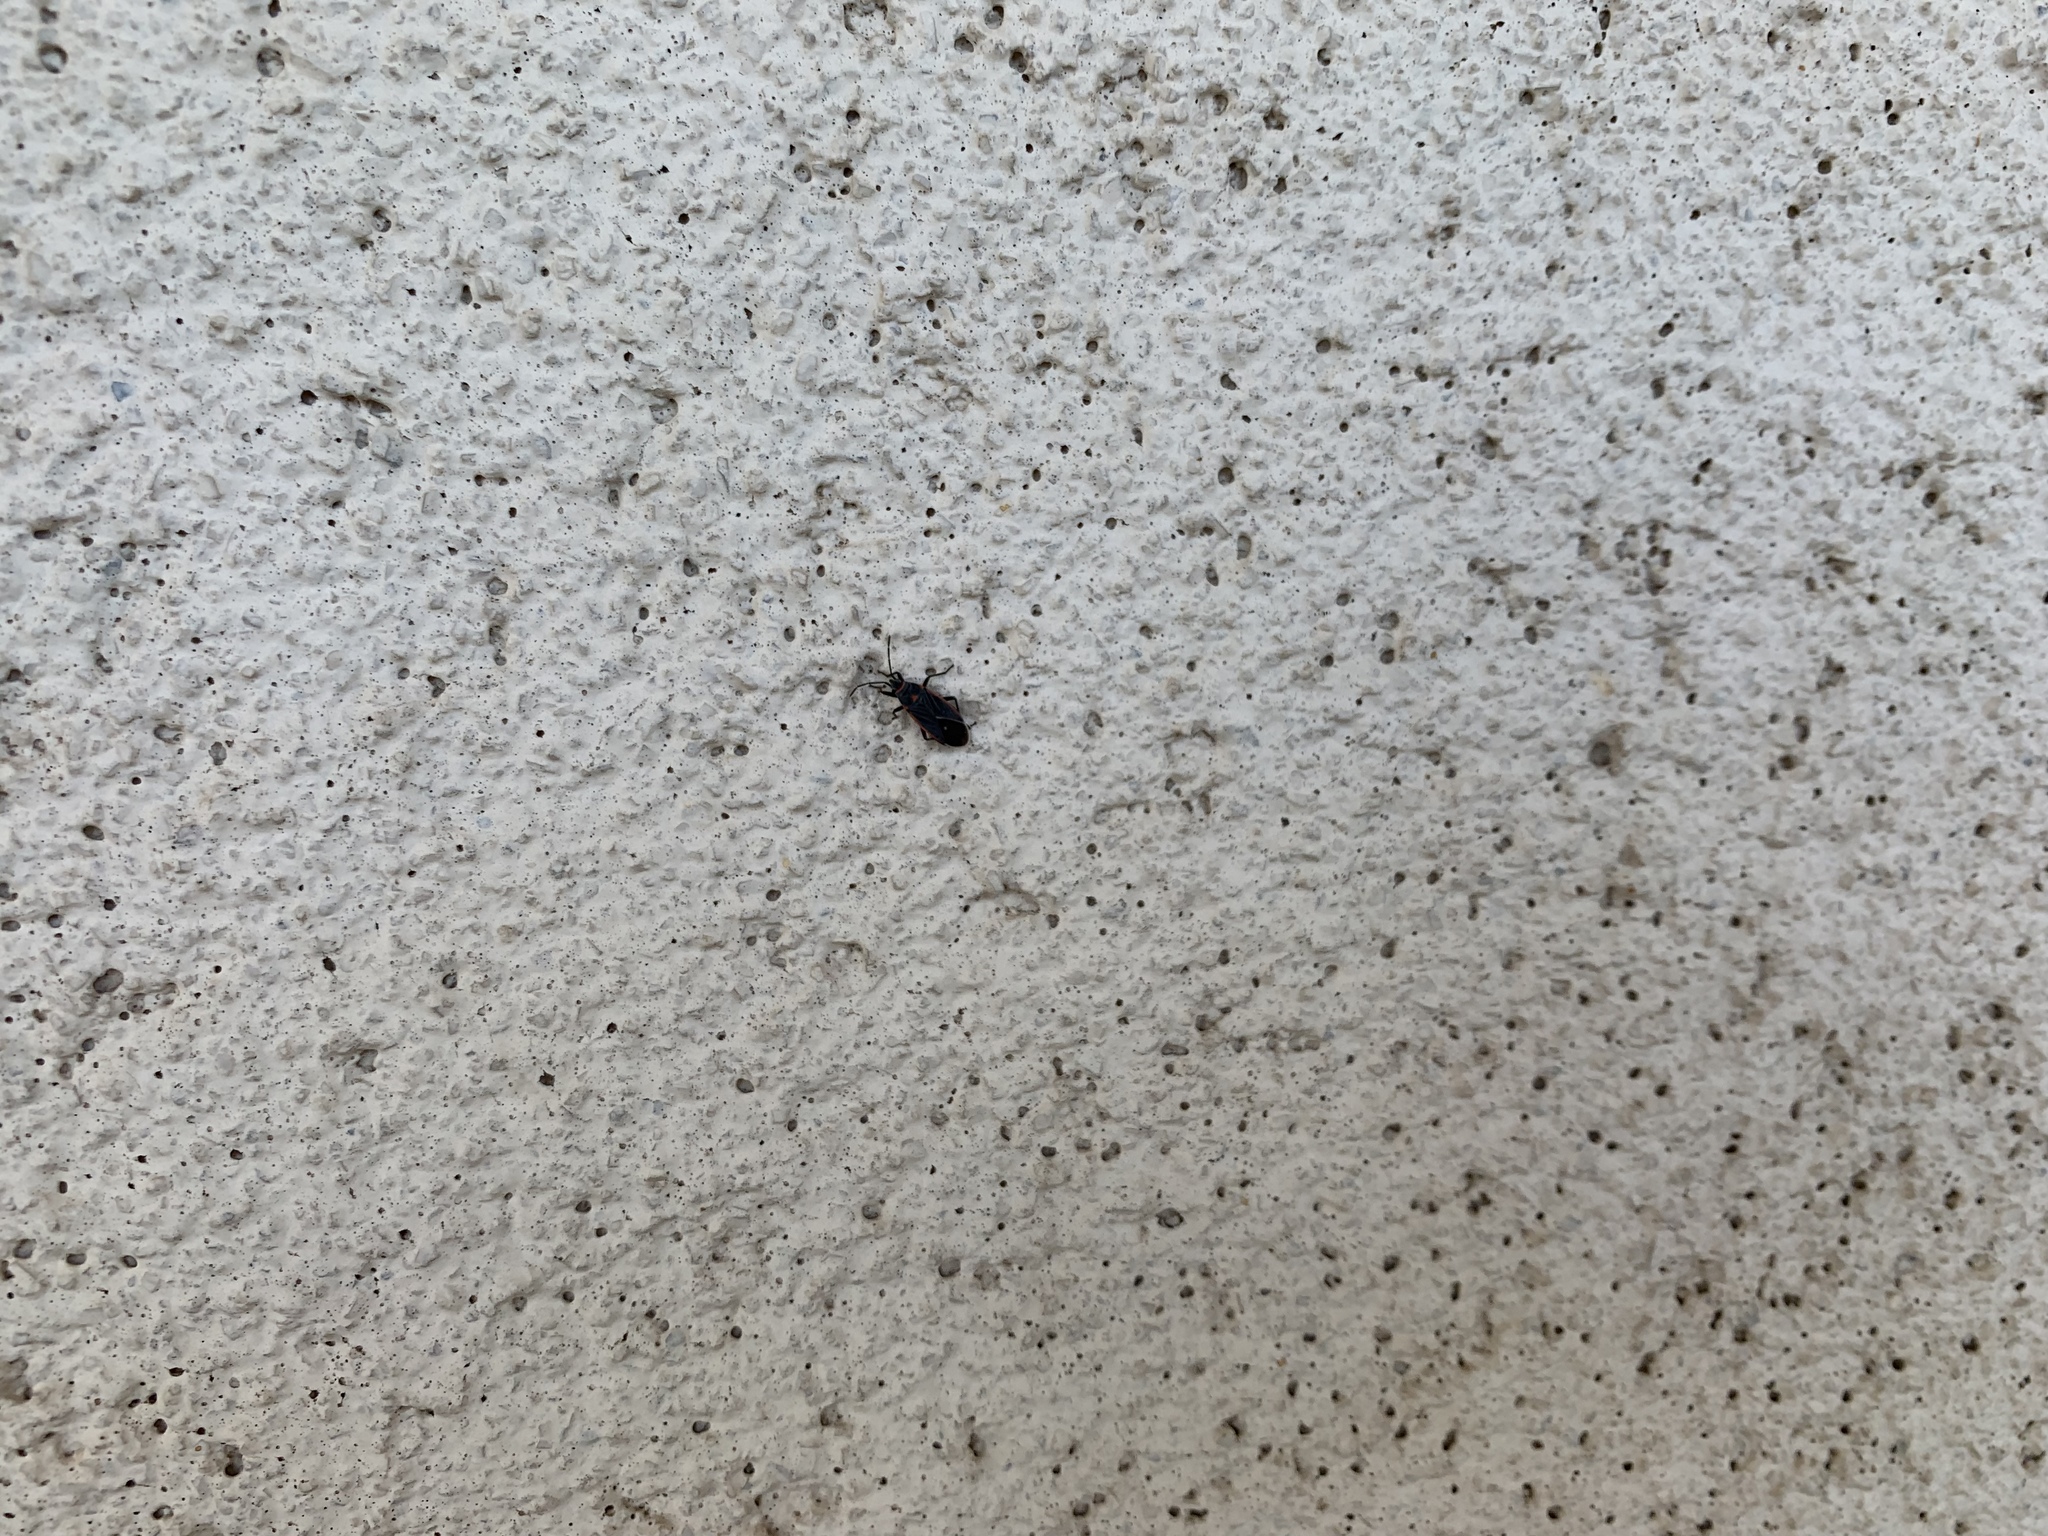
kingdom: Animalia
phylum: Arthropoda
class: Insecta
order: Hemiptera
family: Lygaeidae
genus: Melacoryphus
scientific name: Melacoryphus lateralis
